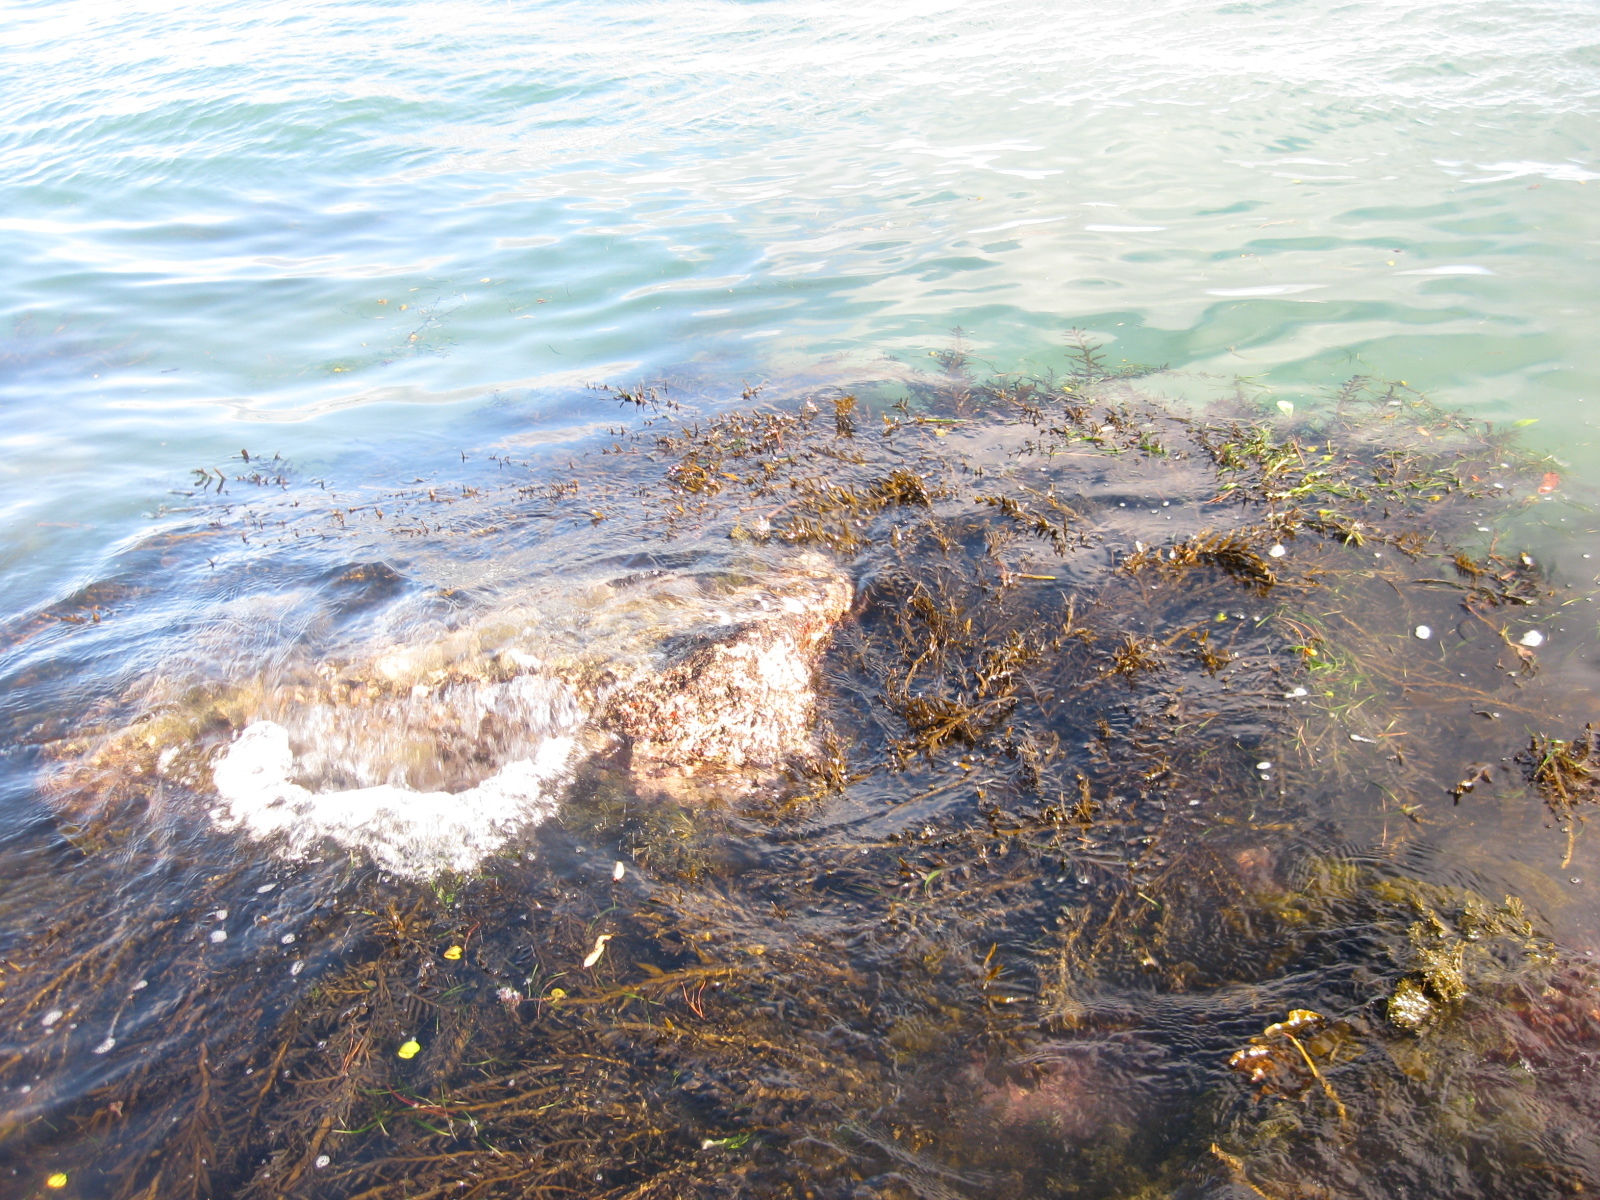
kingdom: Chromista
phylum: Ochrophyta
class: Phaeophyceae
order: Fucales
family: Sargassaceae
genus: Carpophyllum
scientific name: Carpophyllum maschalocarpum
